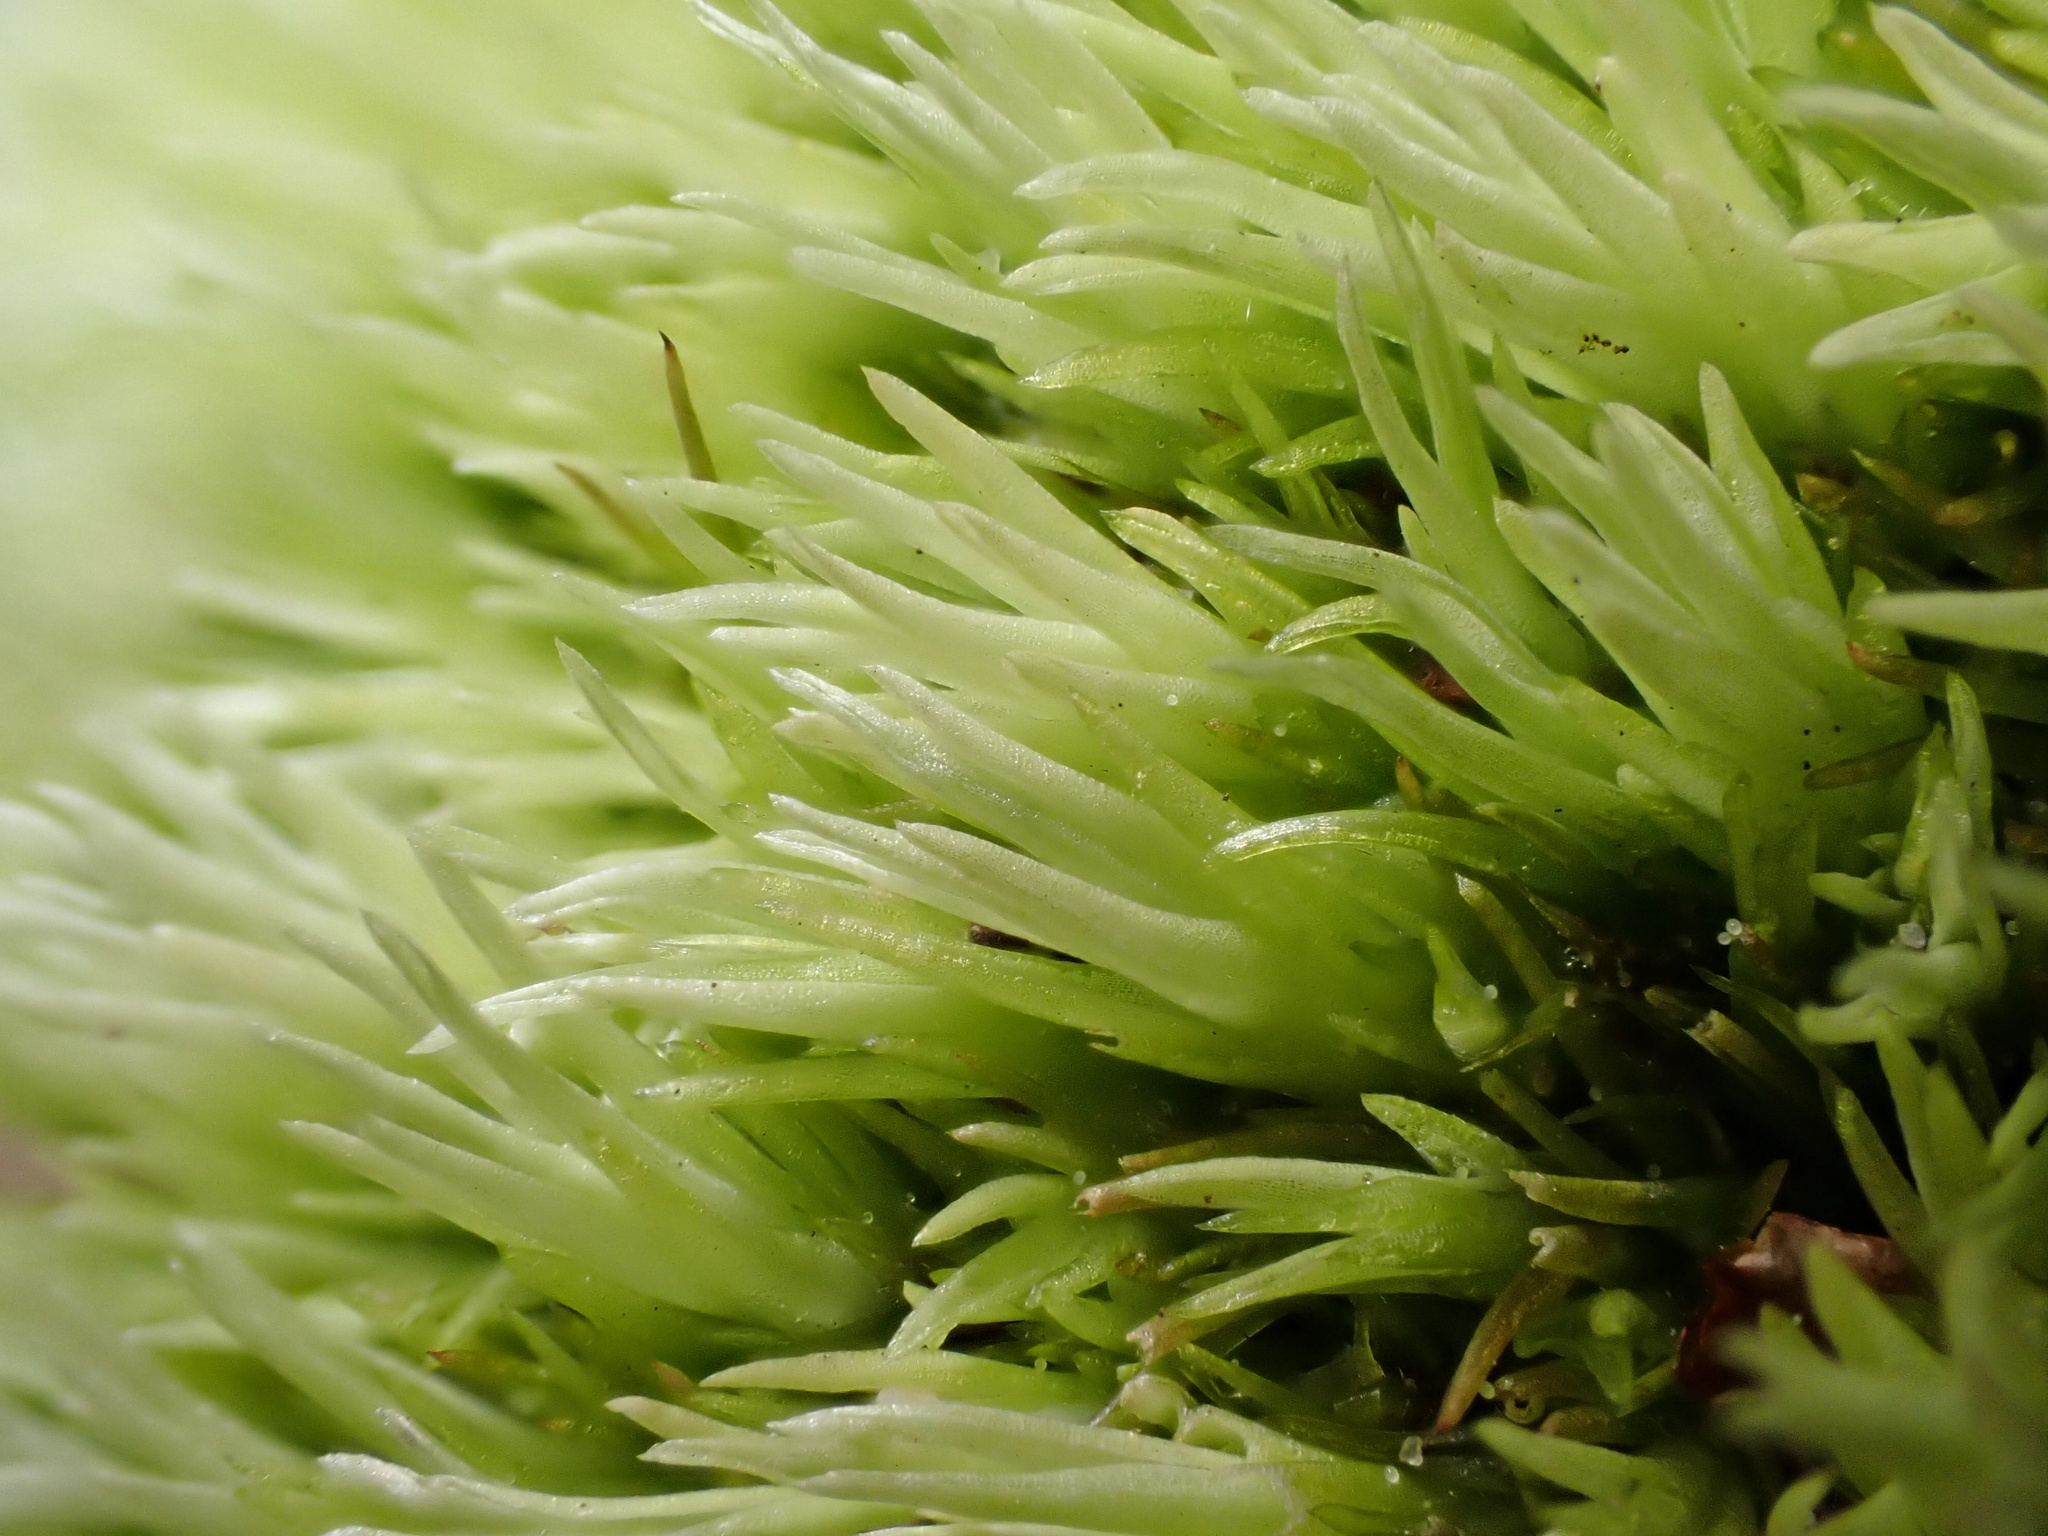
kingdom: Plantae
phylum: Bryophyta
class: Bryopsida
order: Dicranales
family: Leucobryaceae
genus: Leucobryum
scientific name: Leucobryum glaucum
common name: Large white-moss
